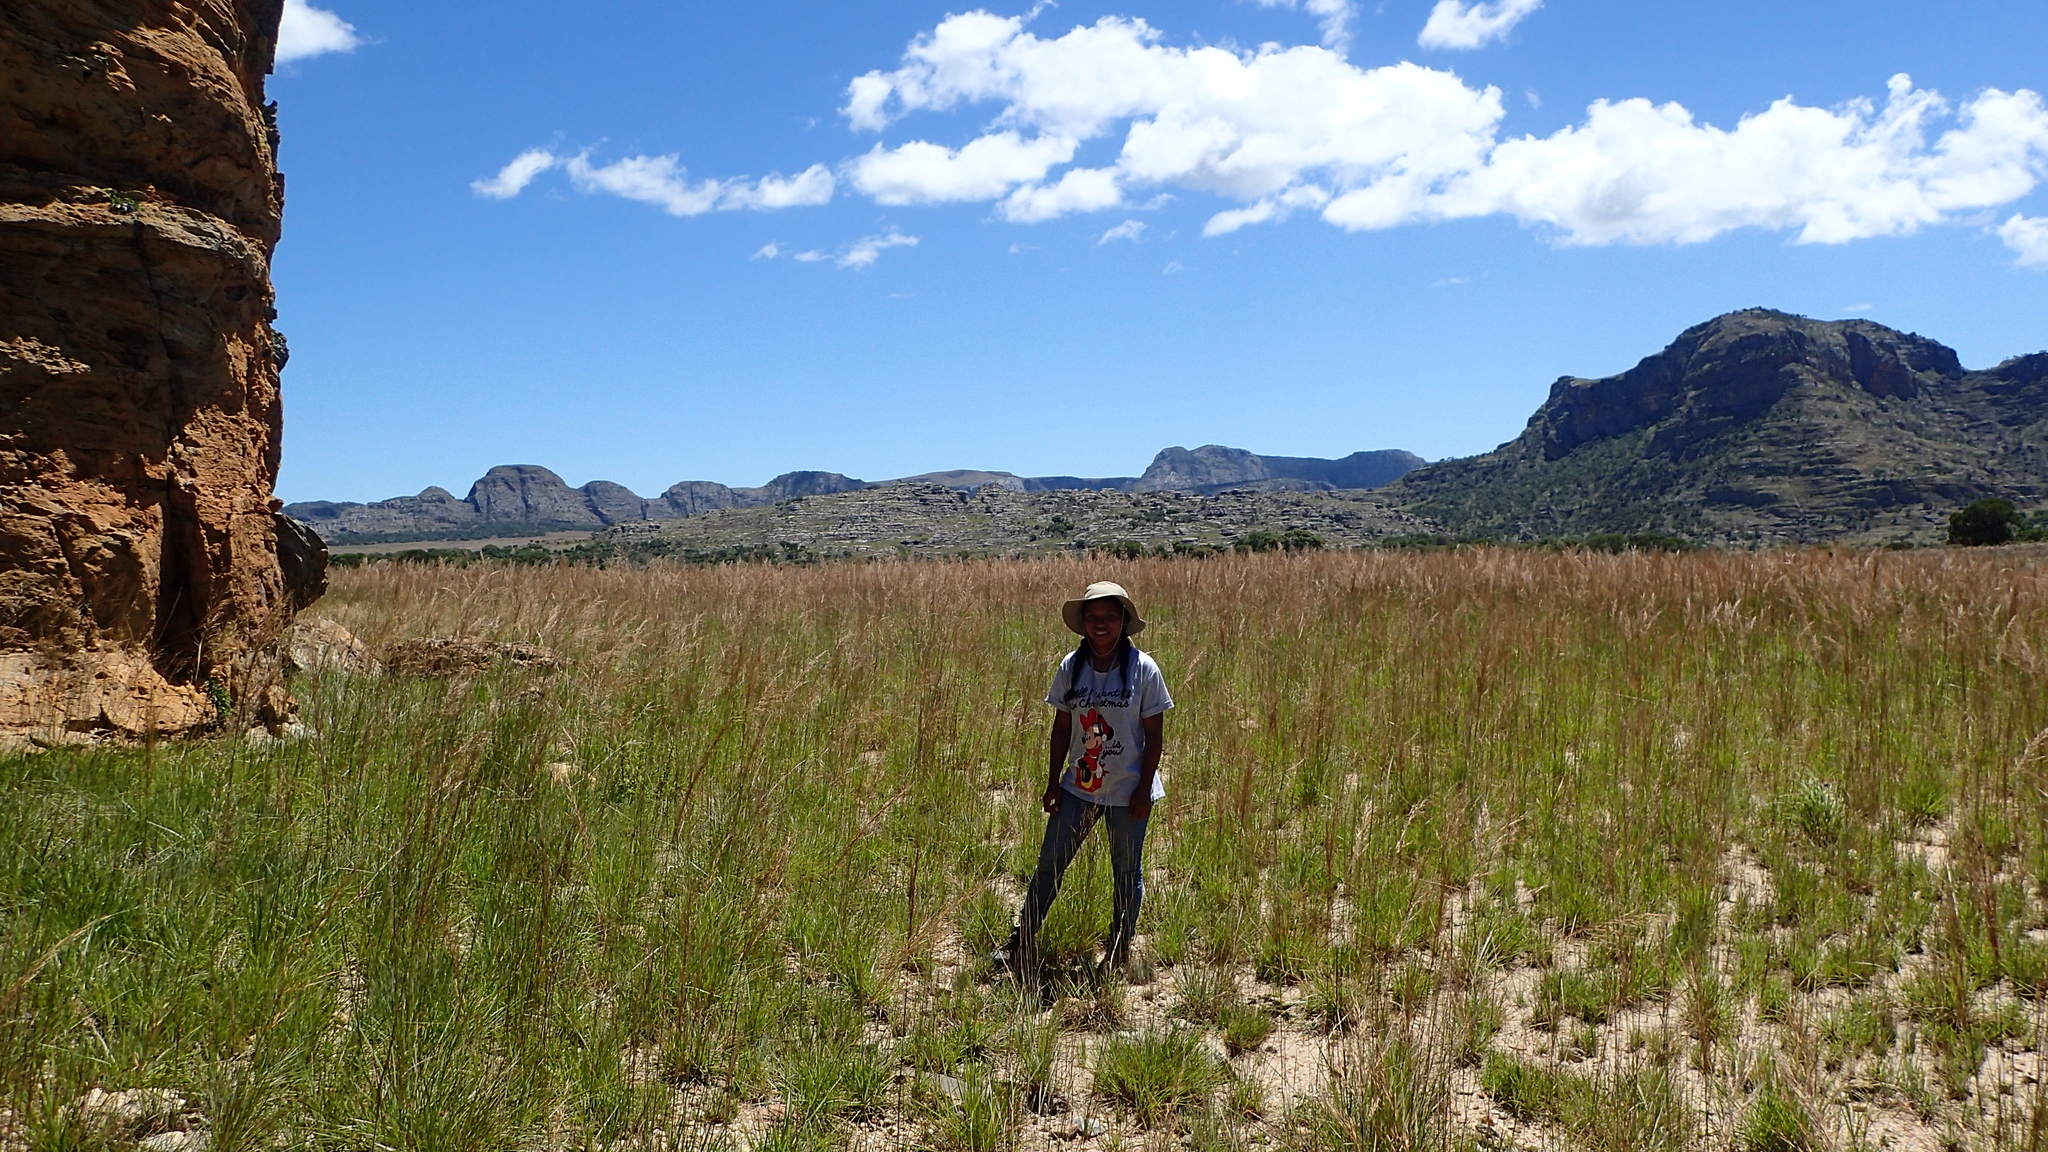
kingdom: Plantae
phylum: Tracheophyta
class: Liliopsida
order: Poales
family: Poaceae
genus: Loudetia
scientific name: Loudetia simplex
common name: Common russet grass
